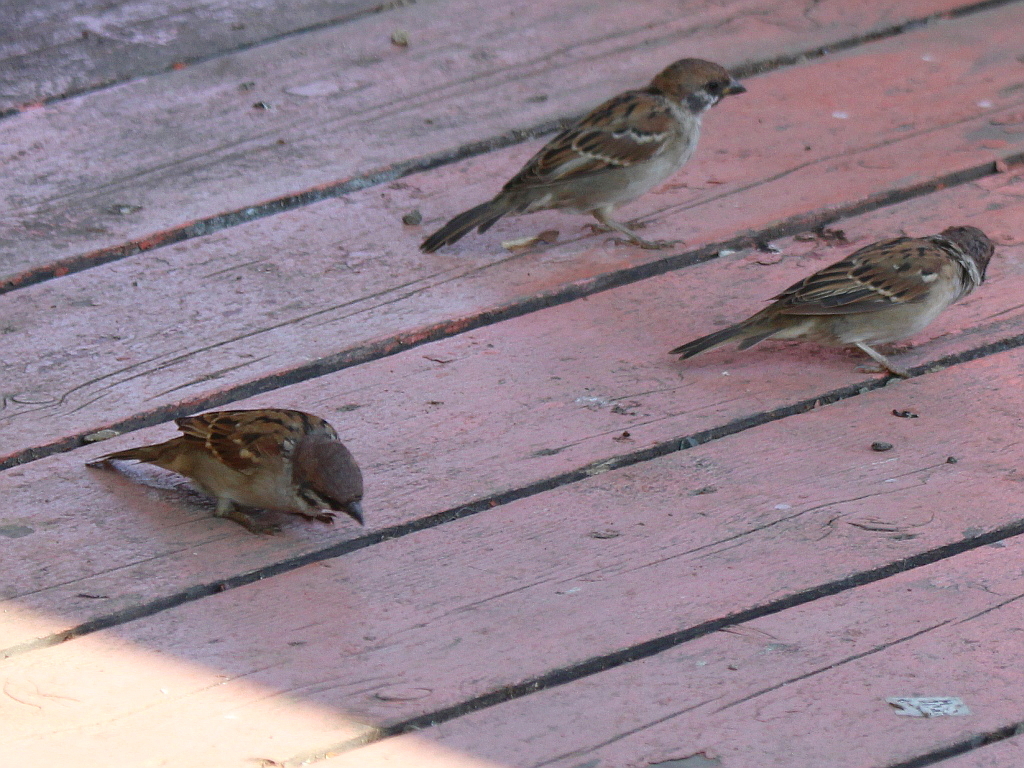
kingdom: Animalia
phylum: Chordata
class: Aves
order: Passeriformes
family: Passeridae
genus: Passer
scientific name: Passer montanus
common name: Eurasian tree sparrow
